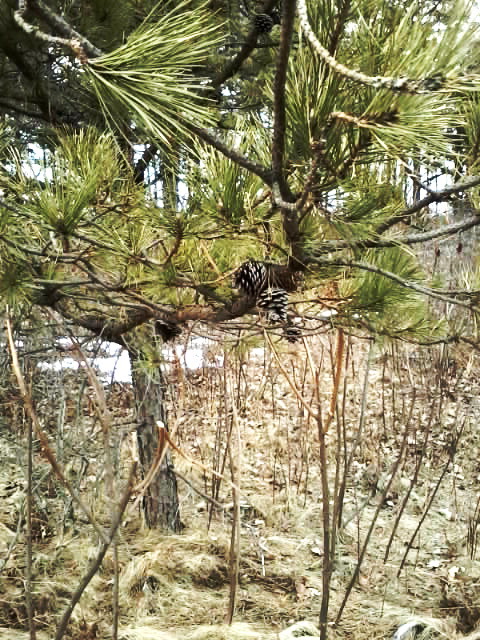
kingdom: Plantae
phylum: Tracheophyta
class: Pinopsida
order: Pinales
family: Pinaceae
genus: Pinus
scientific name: Pinus rigida
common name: Pitch pine
